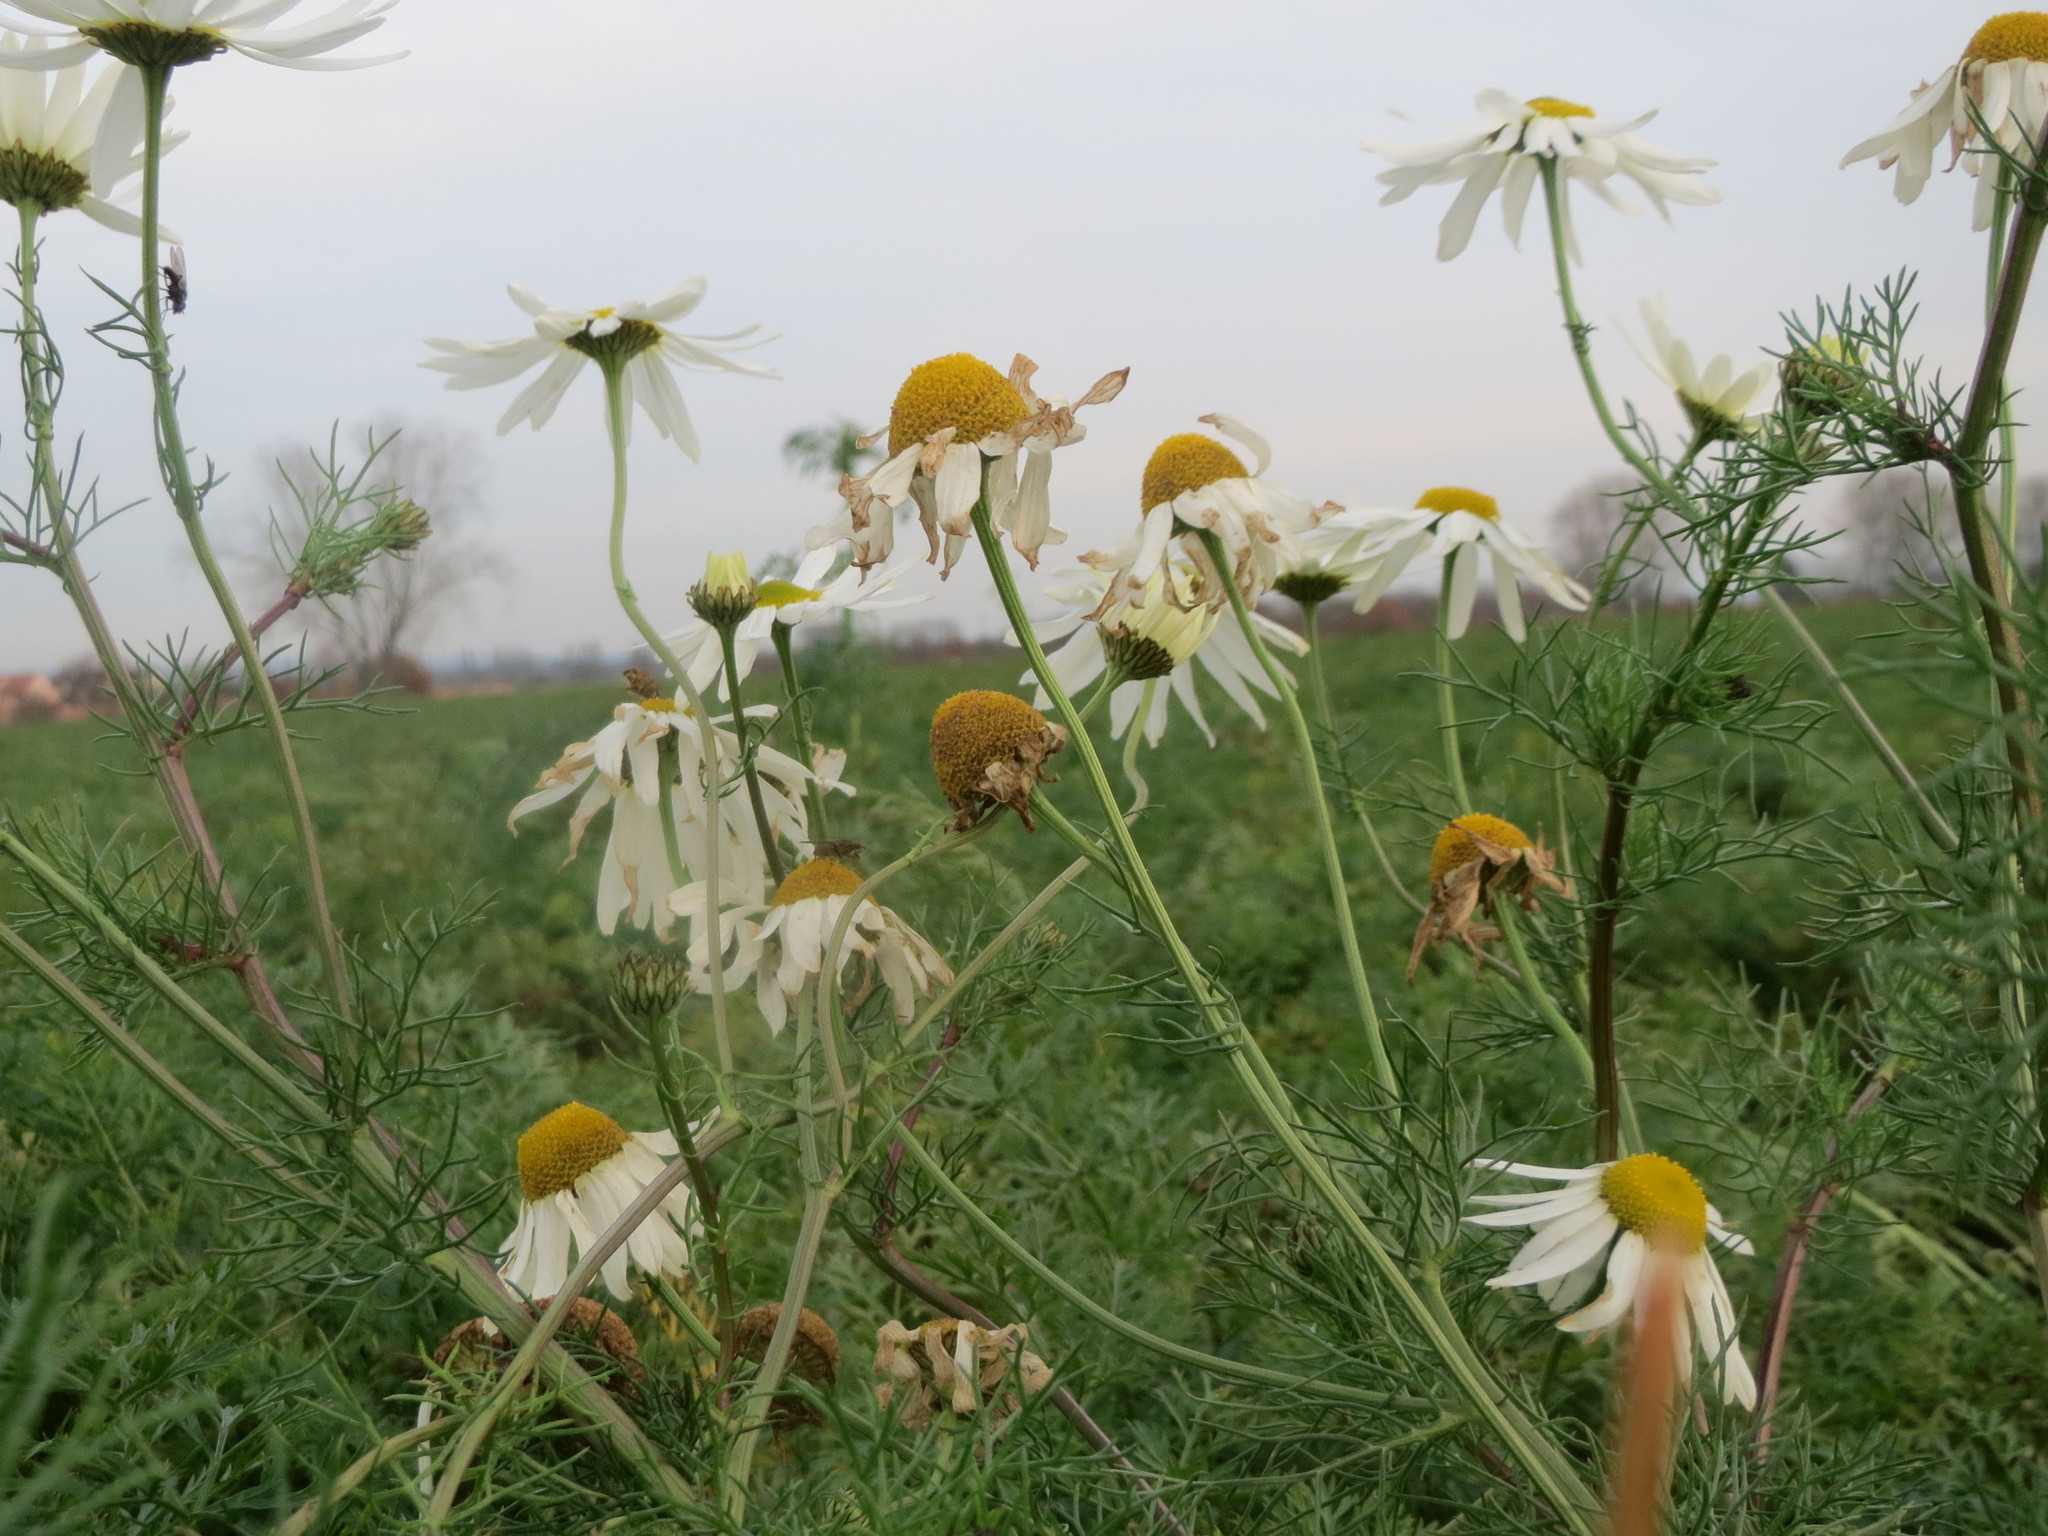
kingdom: Plantae
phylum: Tracheophyta
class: Magnoliopsida
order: Asterales
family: Asteraceae
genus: Tripleurospermum
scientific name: Tripleurospermum inodorum
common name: Scentless mayweed
